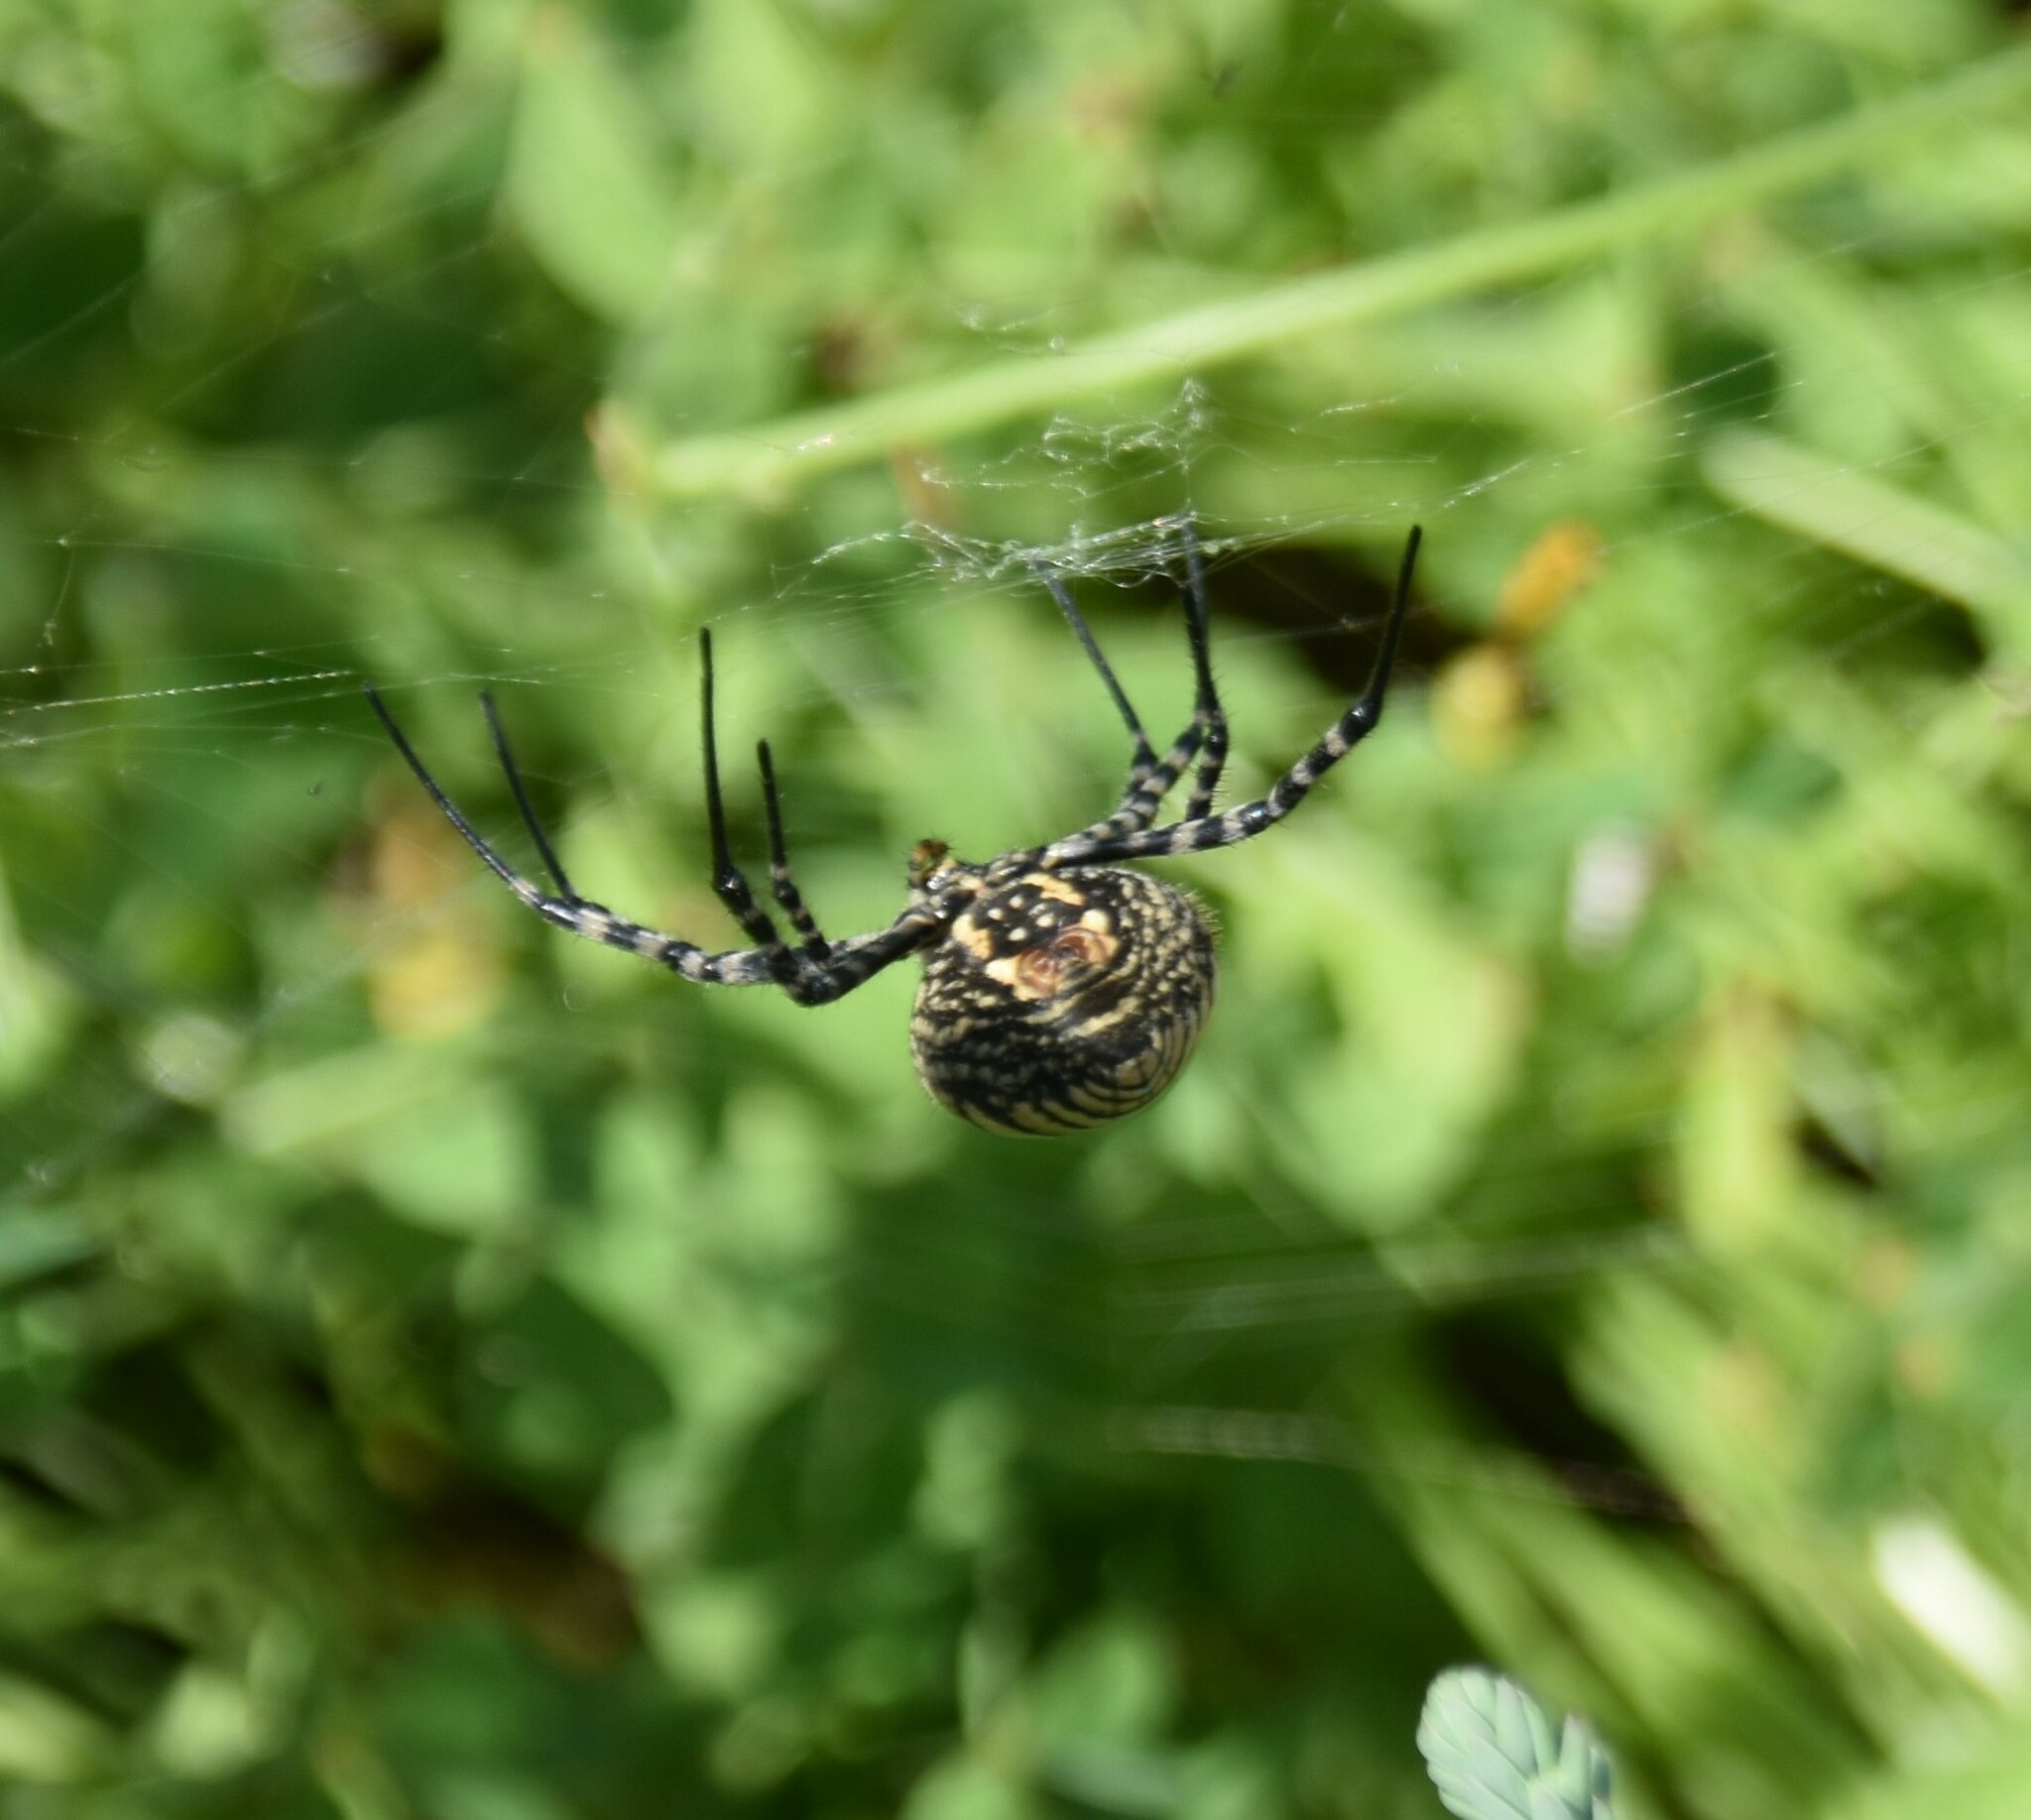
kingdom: Animalia
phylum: Arthropoda
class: Arachnida
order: Araneae
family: Araneidae
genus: Argiope
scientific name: Argiope trifasciata
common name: Banded garden spider
